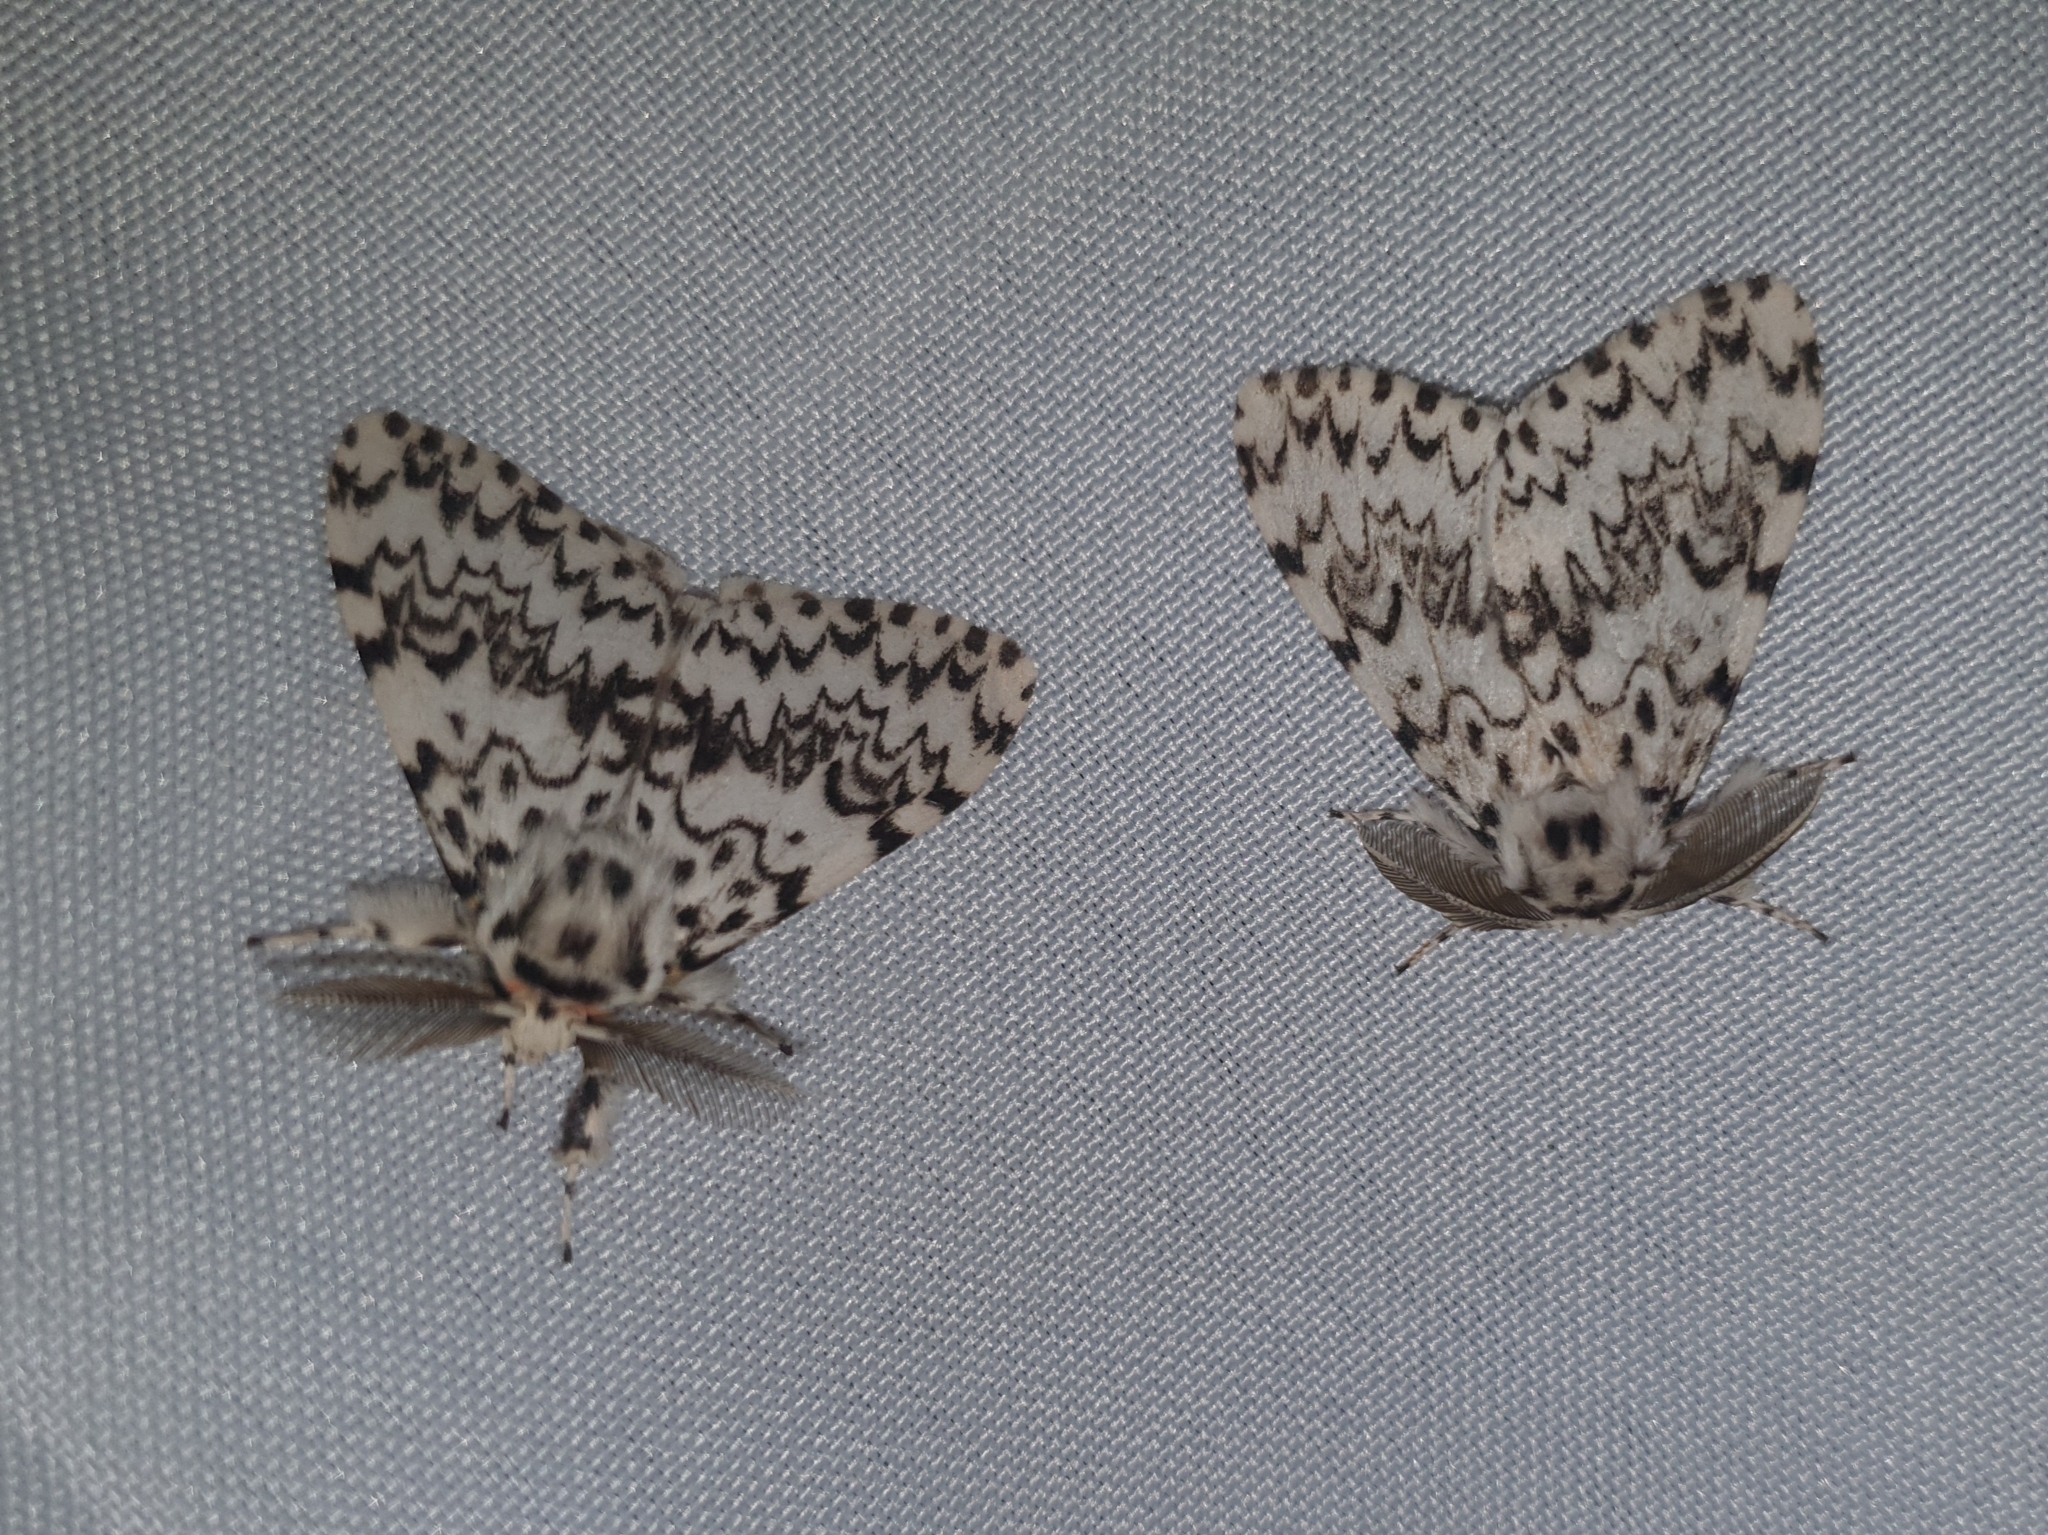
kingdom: Animalia
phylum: Arthropoda
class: Insecta
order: Lepidoptera
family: Erebidae
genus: Lymantria
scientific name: Lymantria monacha
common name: Black arches
